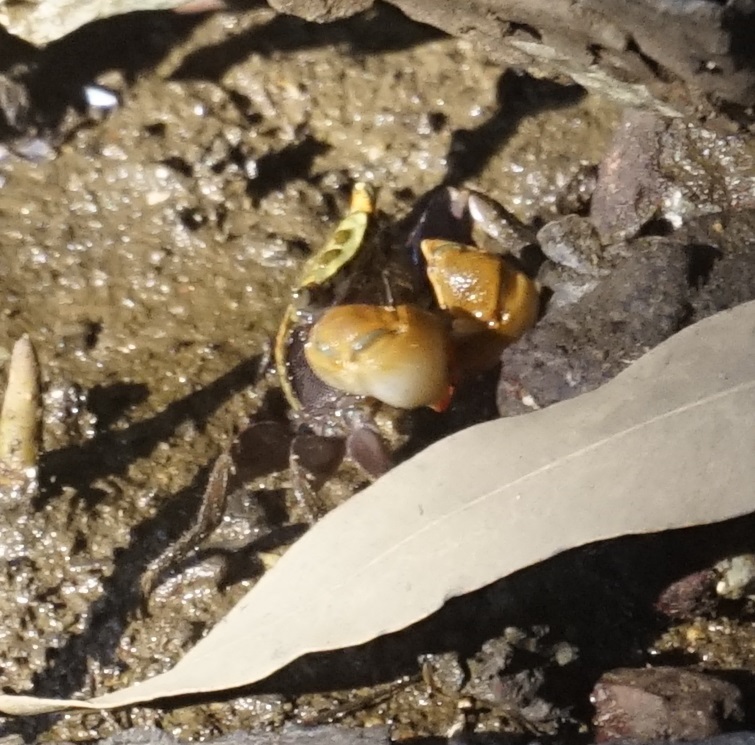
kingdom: Animalia
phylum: Arthropoda
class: Malacostraca
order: Decapoda
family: Sesarmidae
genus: Parasesarma
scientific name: Parasesarma erythodactylum
